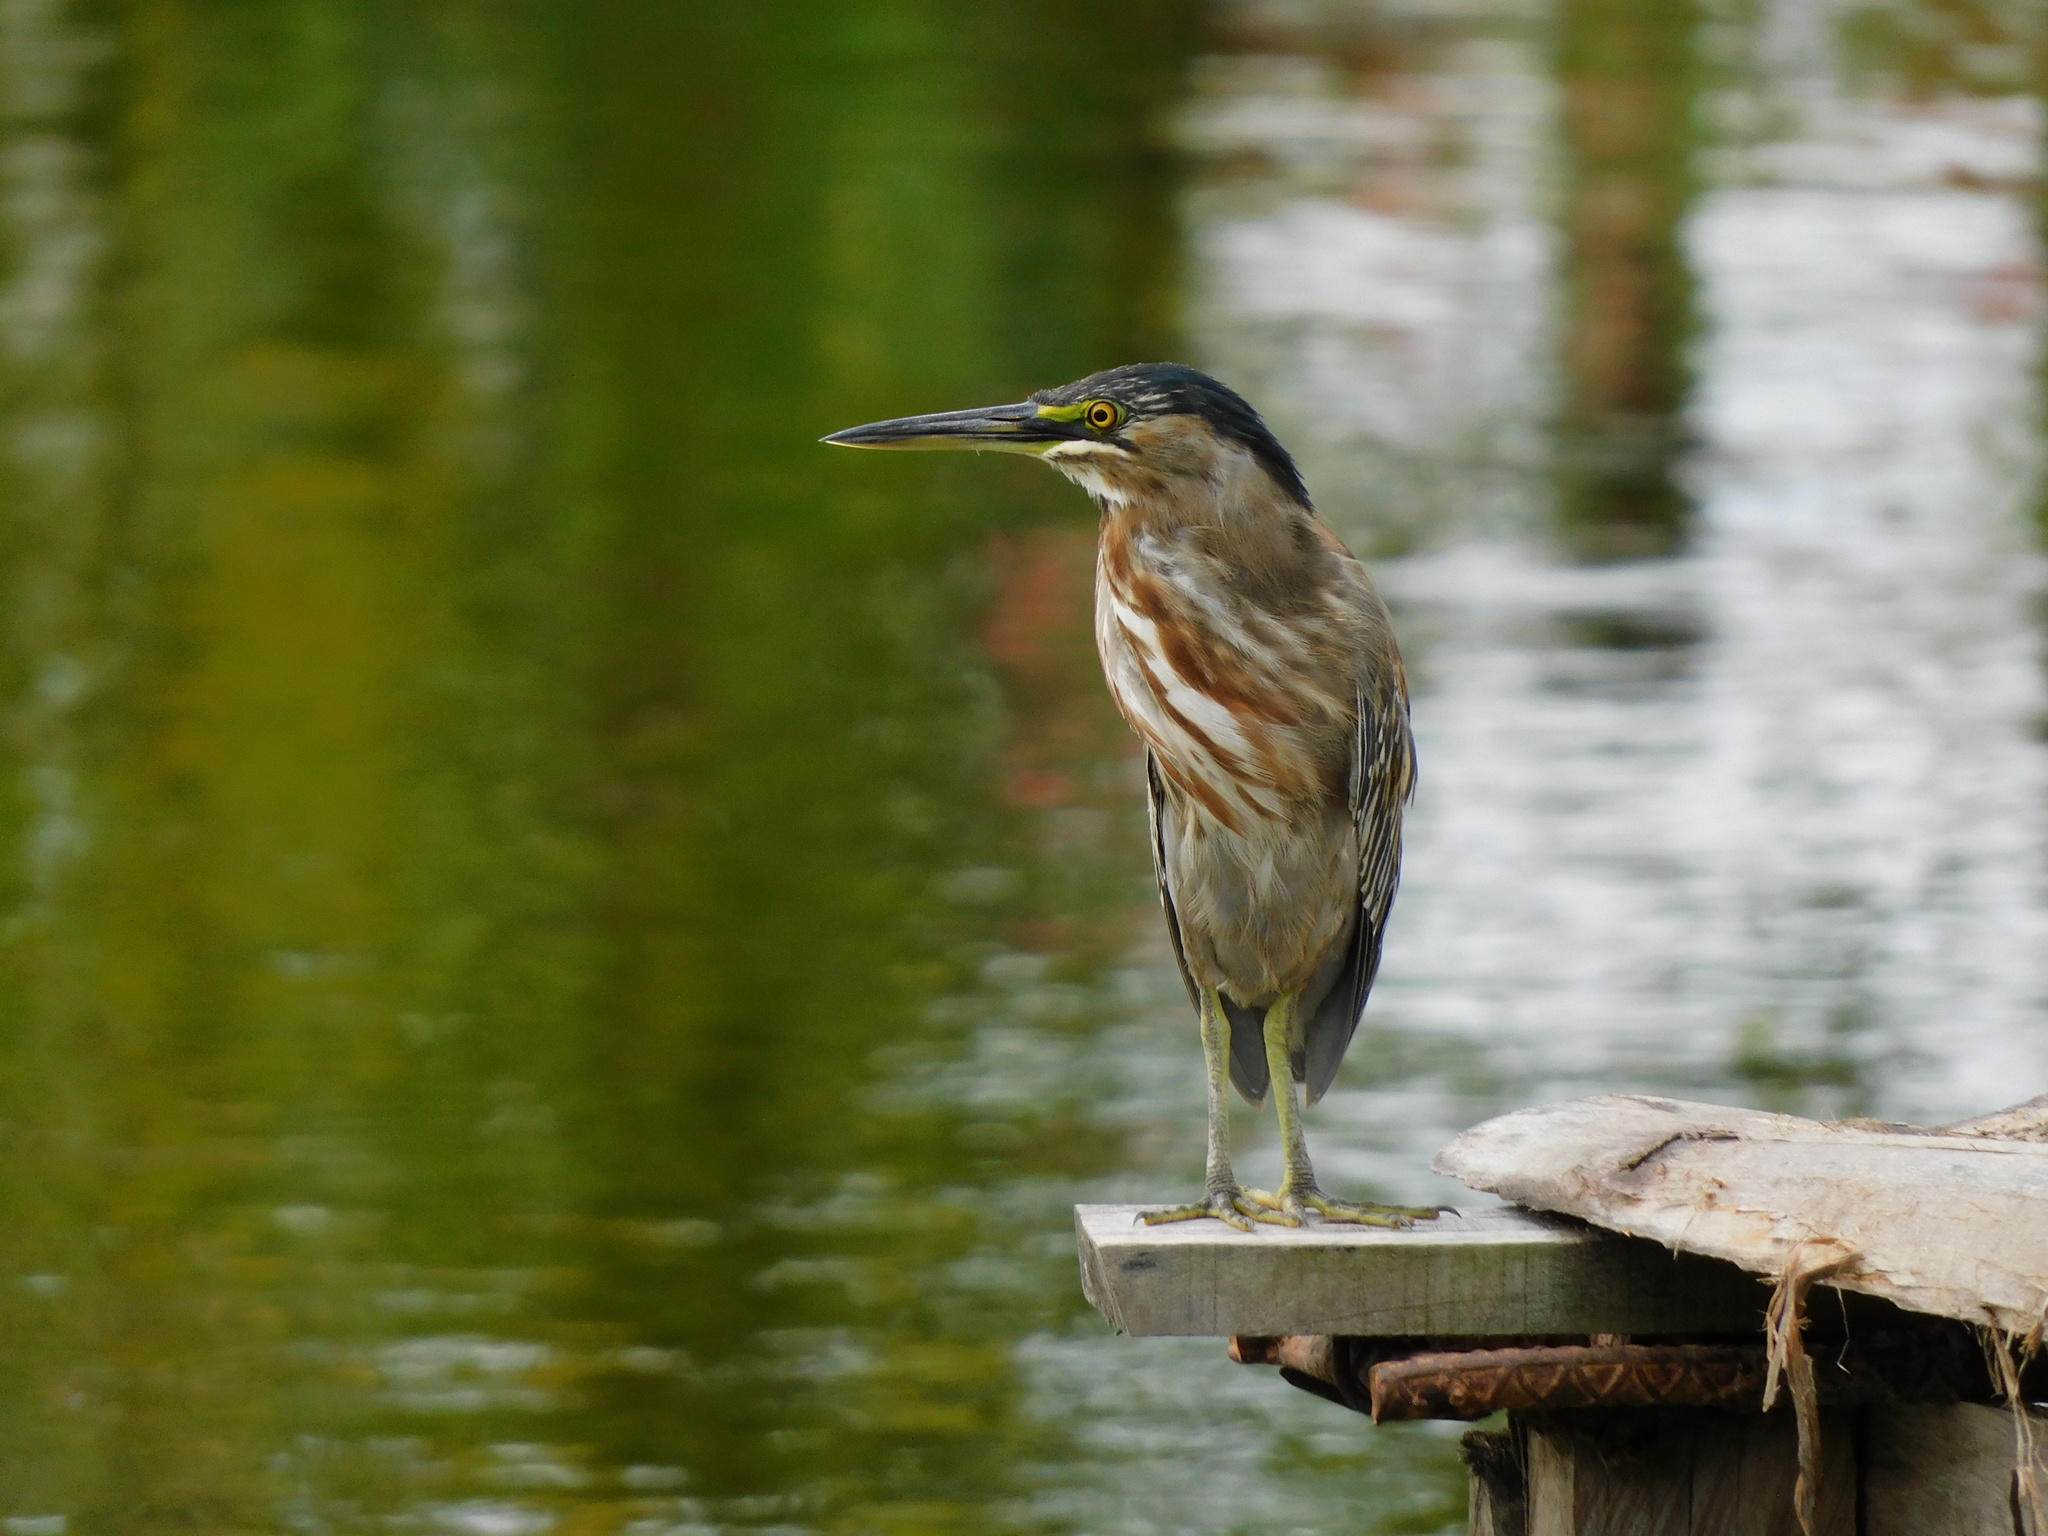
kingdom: Animalia
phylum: Chordata
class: Aves
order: Pelecaniformes
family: Ardeidae
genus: Butorides
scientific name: Butorides striata
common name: Striated heron
